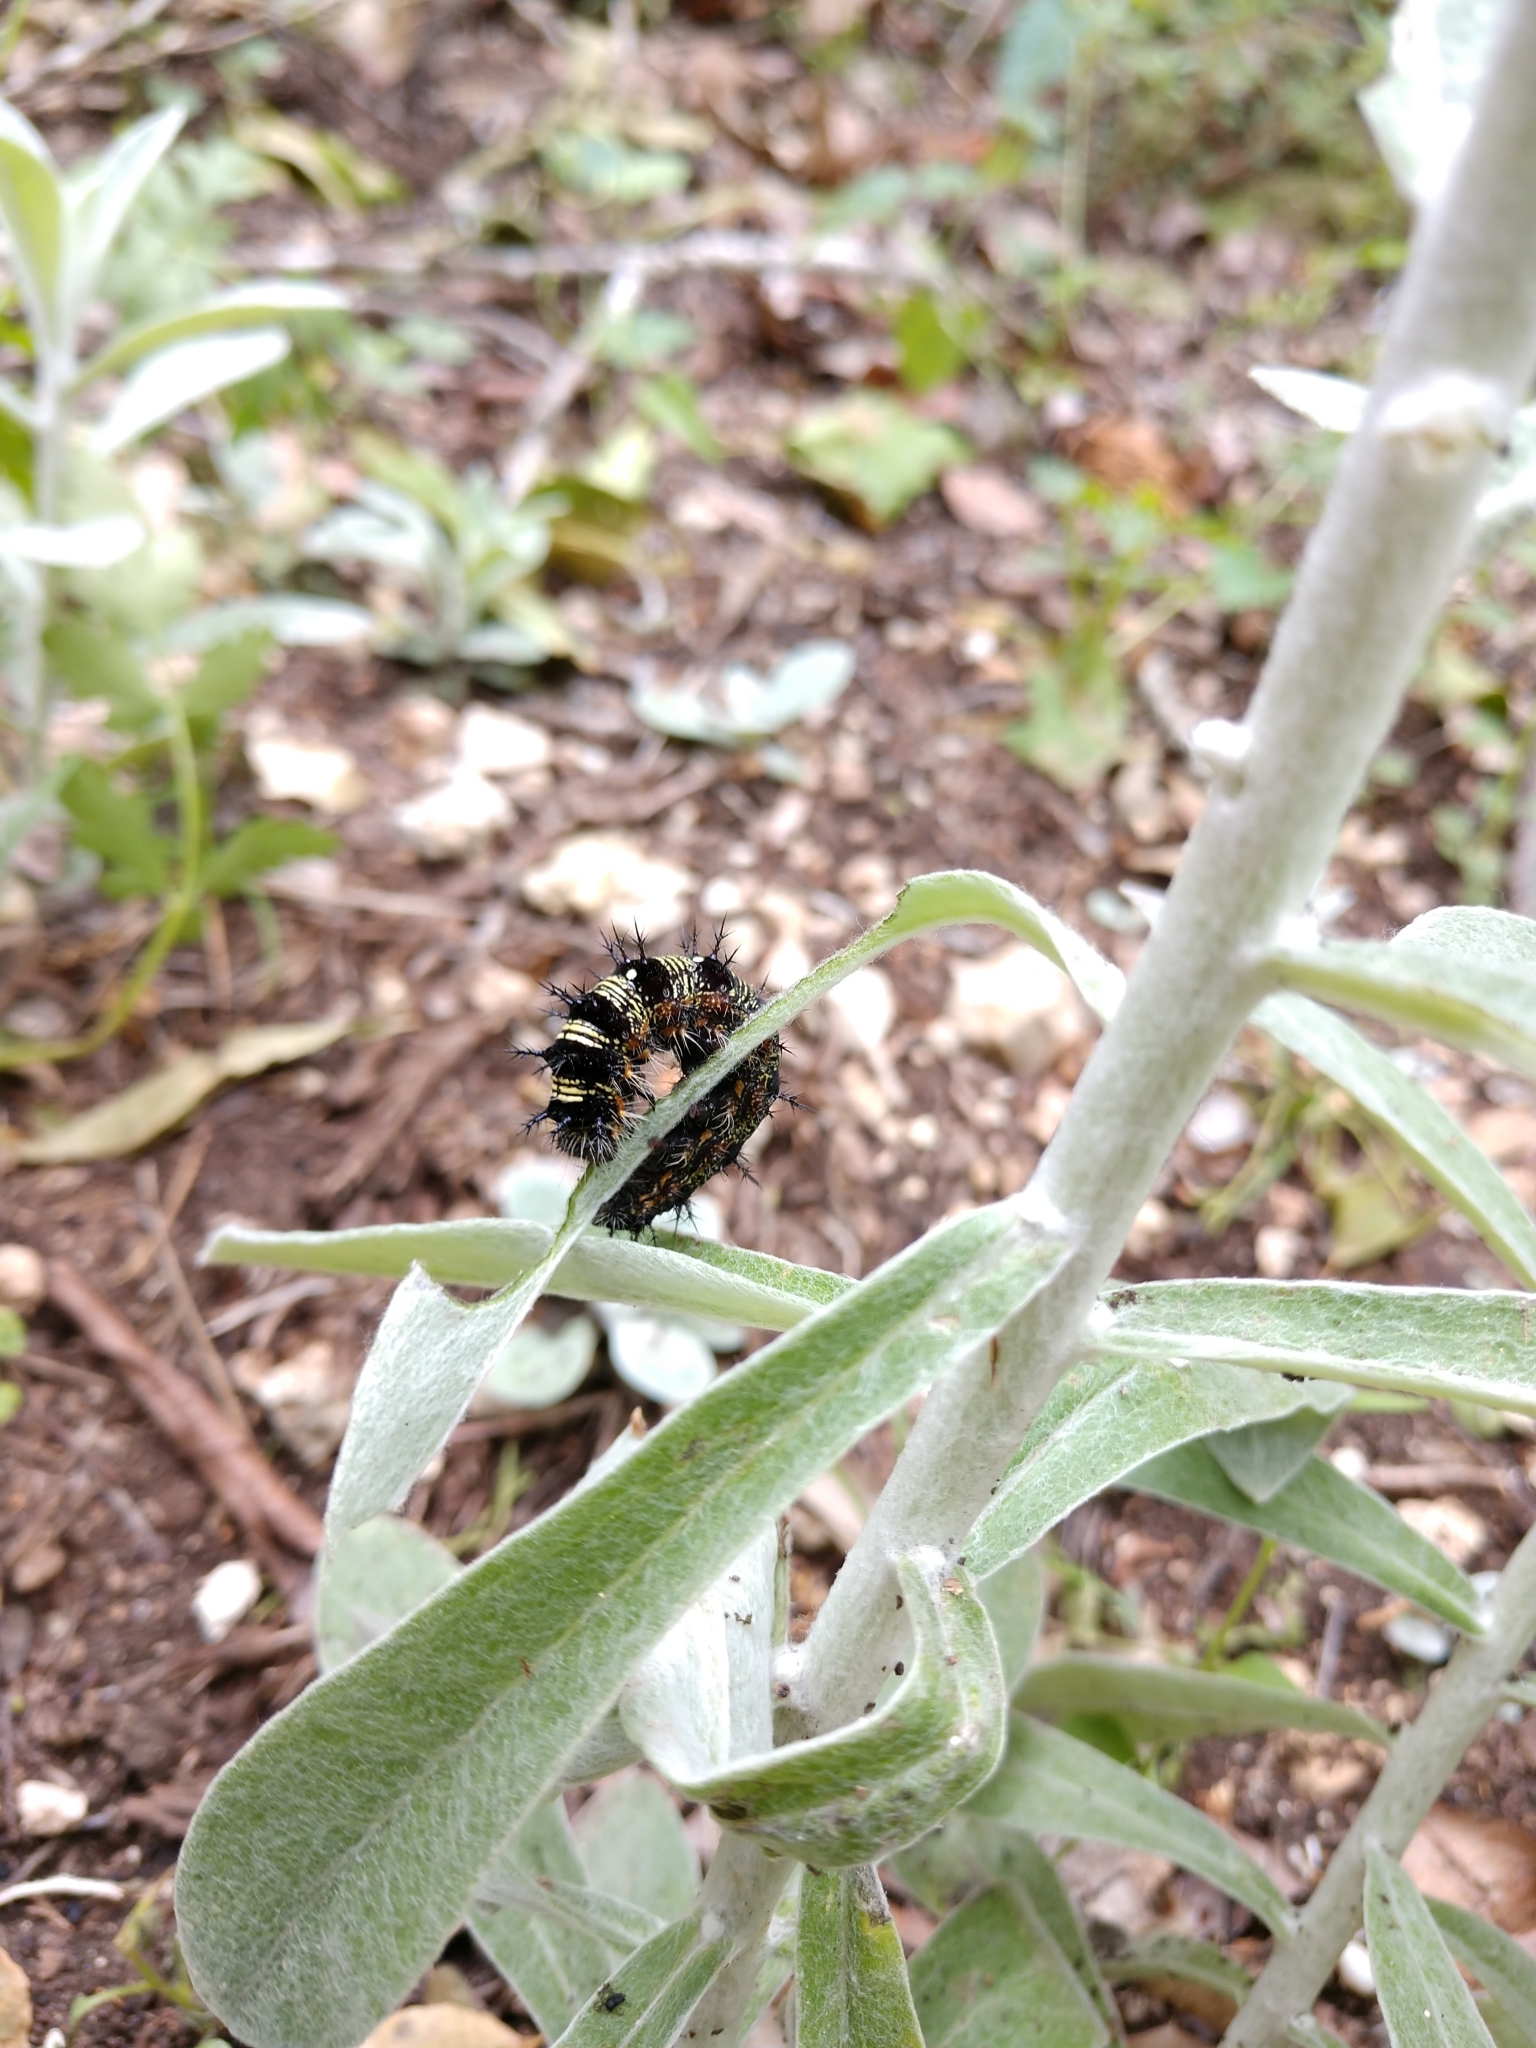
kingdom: Animalia
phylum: Arthropoda
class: Insecta
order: Lepidoptera
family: Nymphalidae
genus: Vanessa
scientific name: Vanessa virginiensis
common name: American lady
